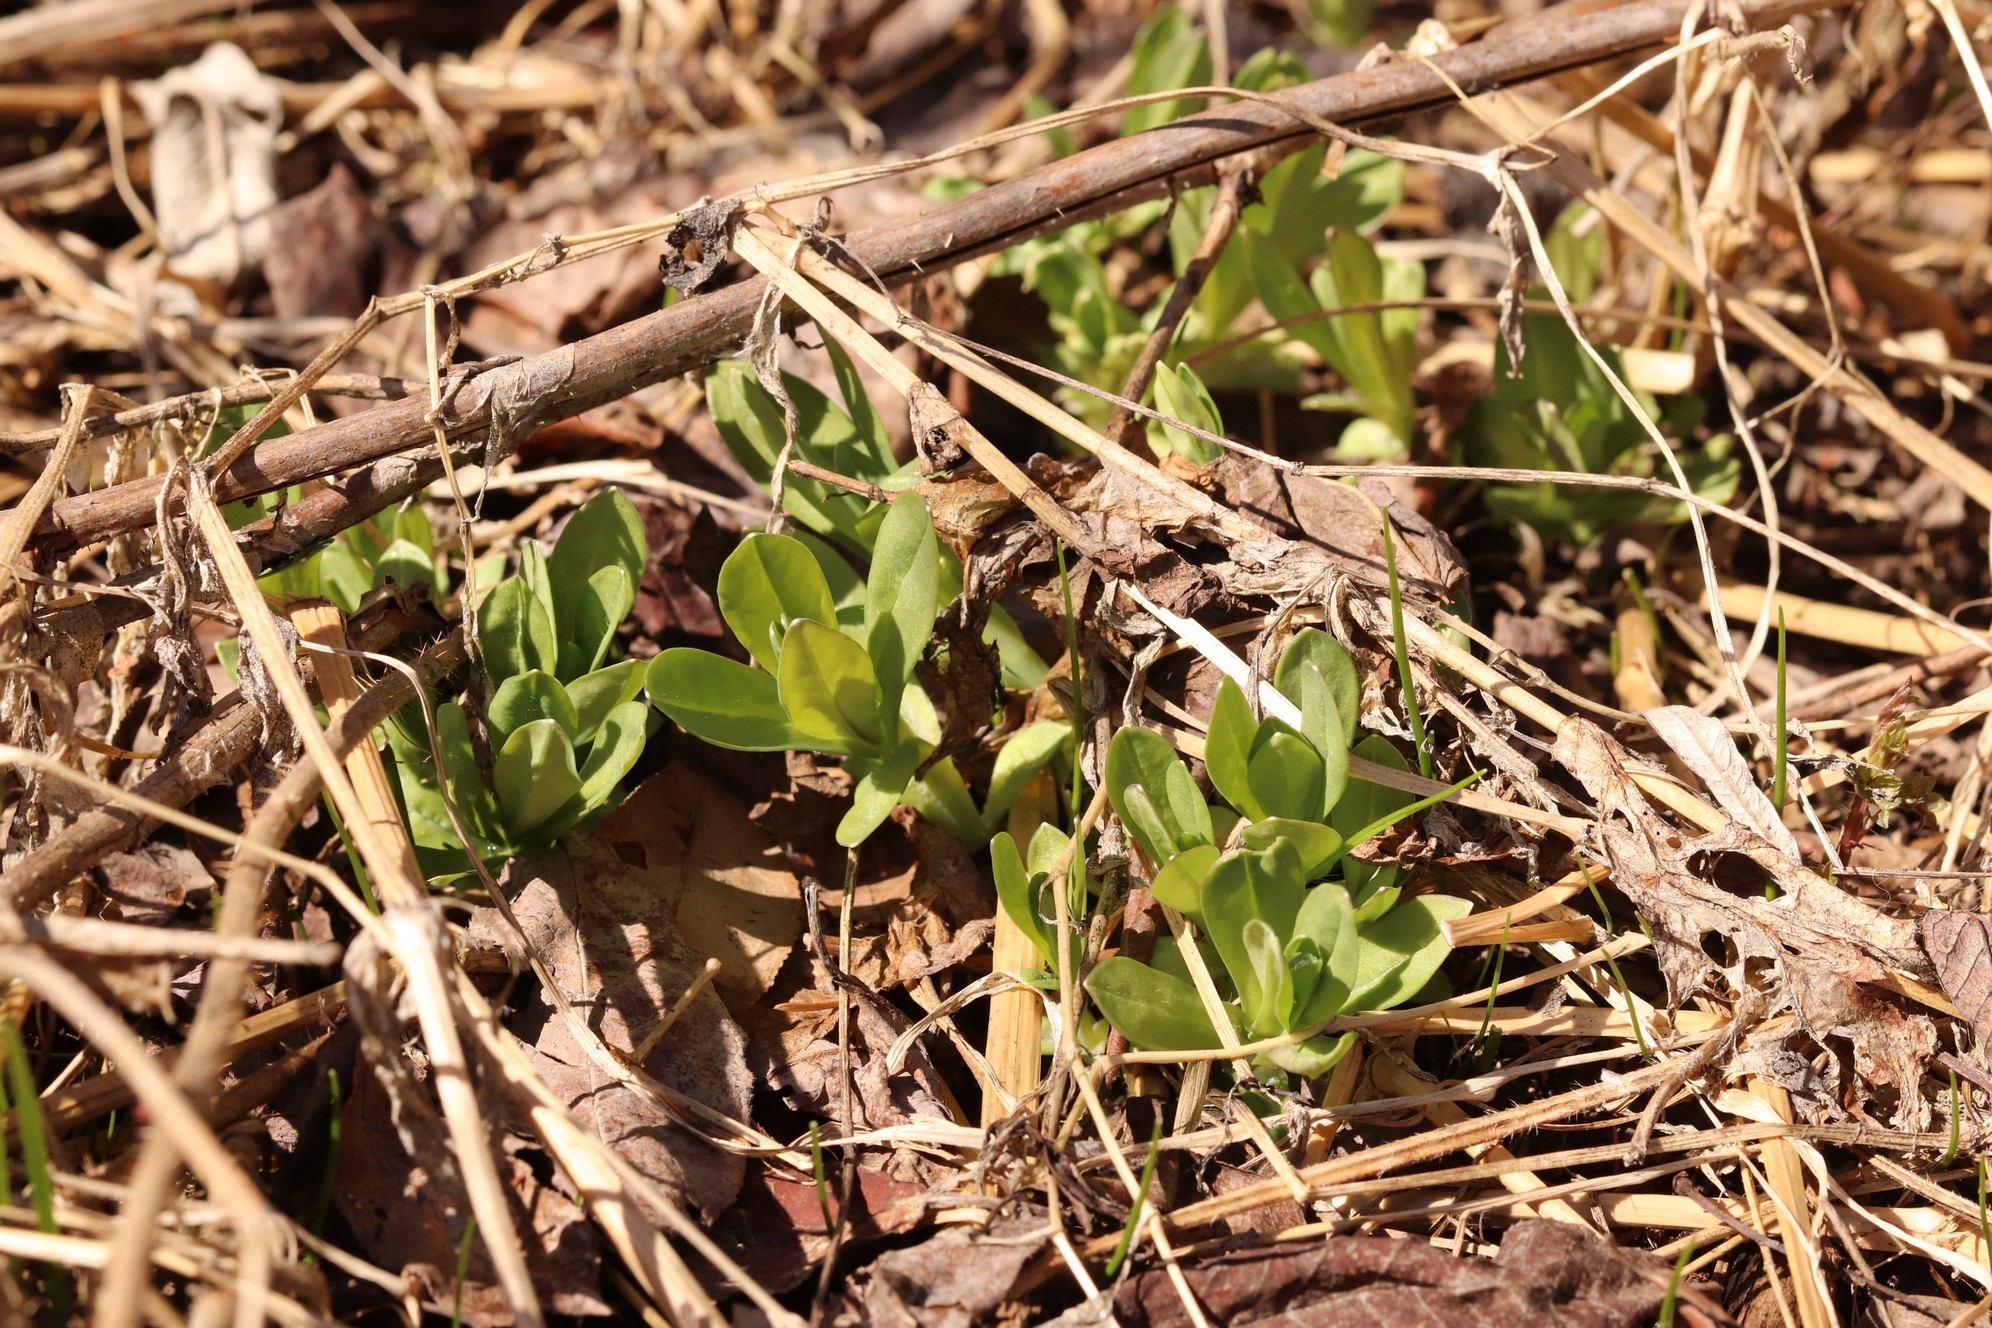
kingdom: Plantae
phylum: Tracheophyta
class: Magnoliopsida
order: Caryophyllales
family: Caryophyllaceae
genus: Silene
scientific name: Silene vulgaris
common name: Bladder campion
